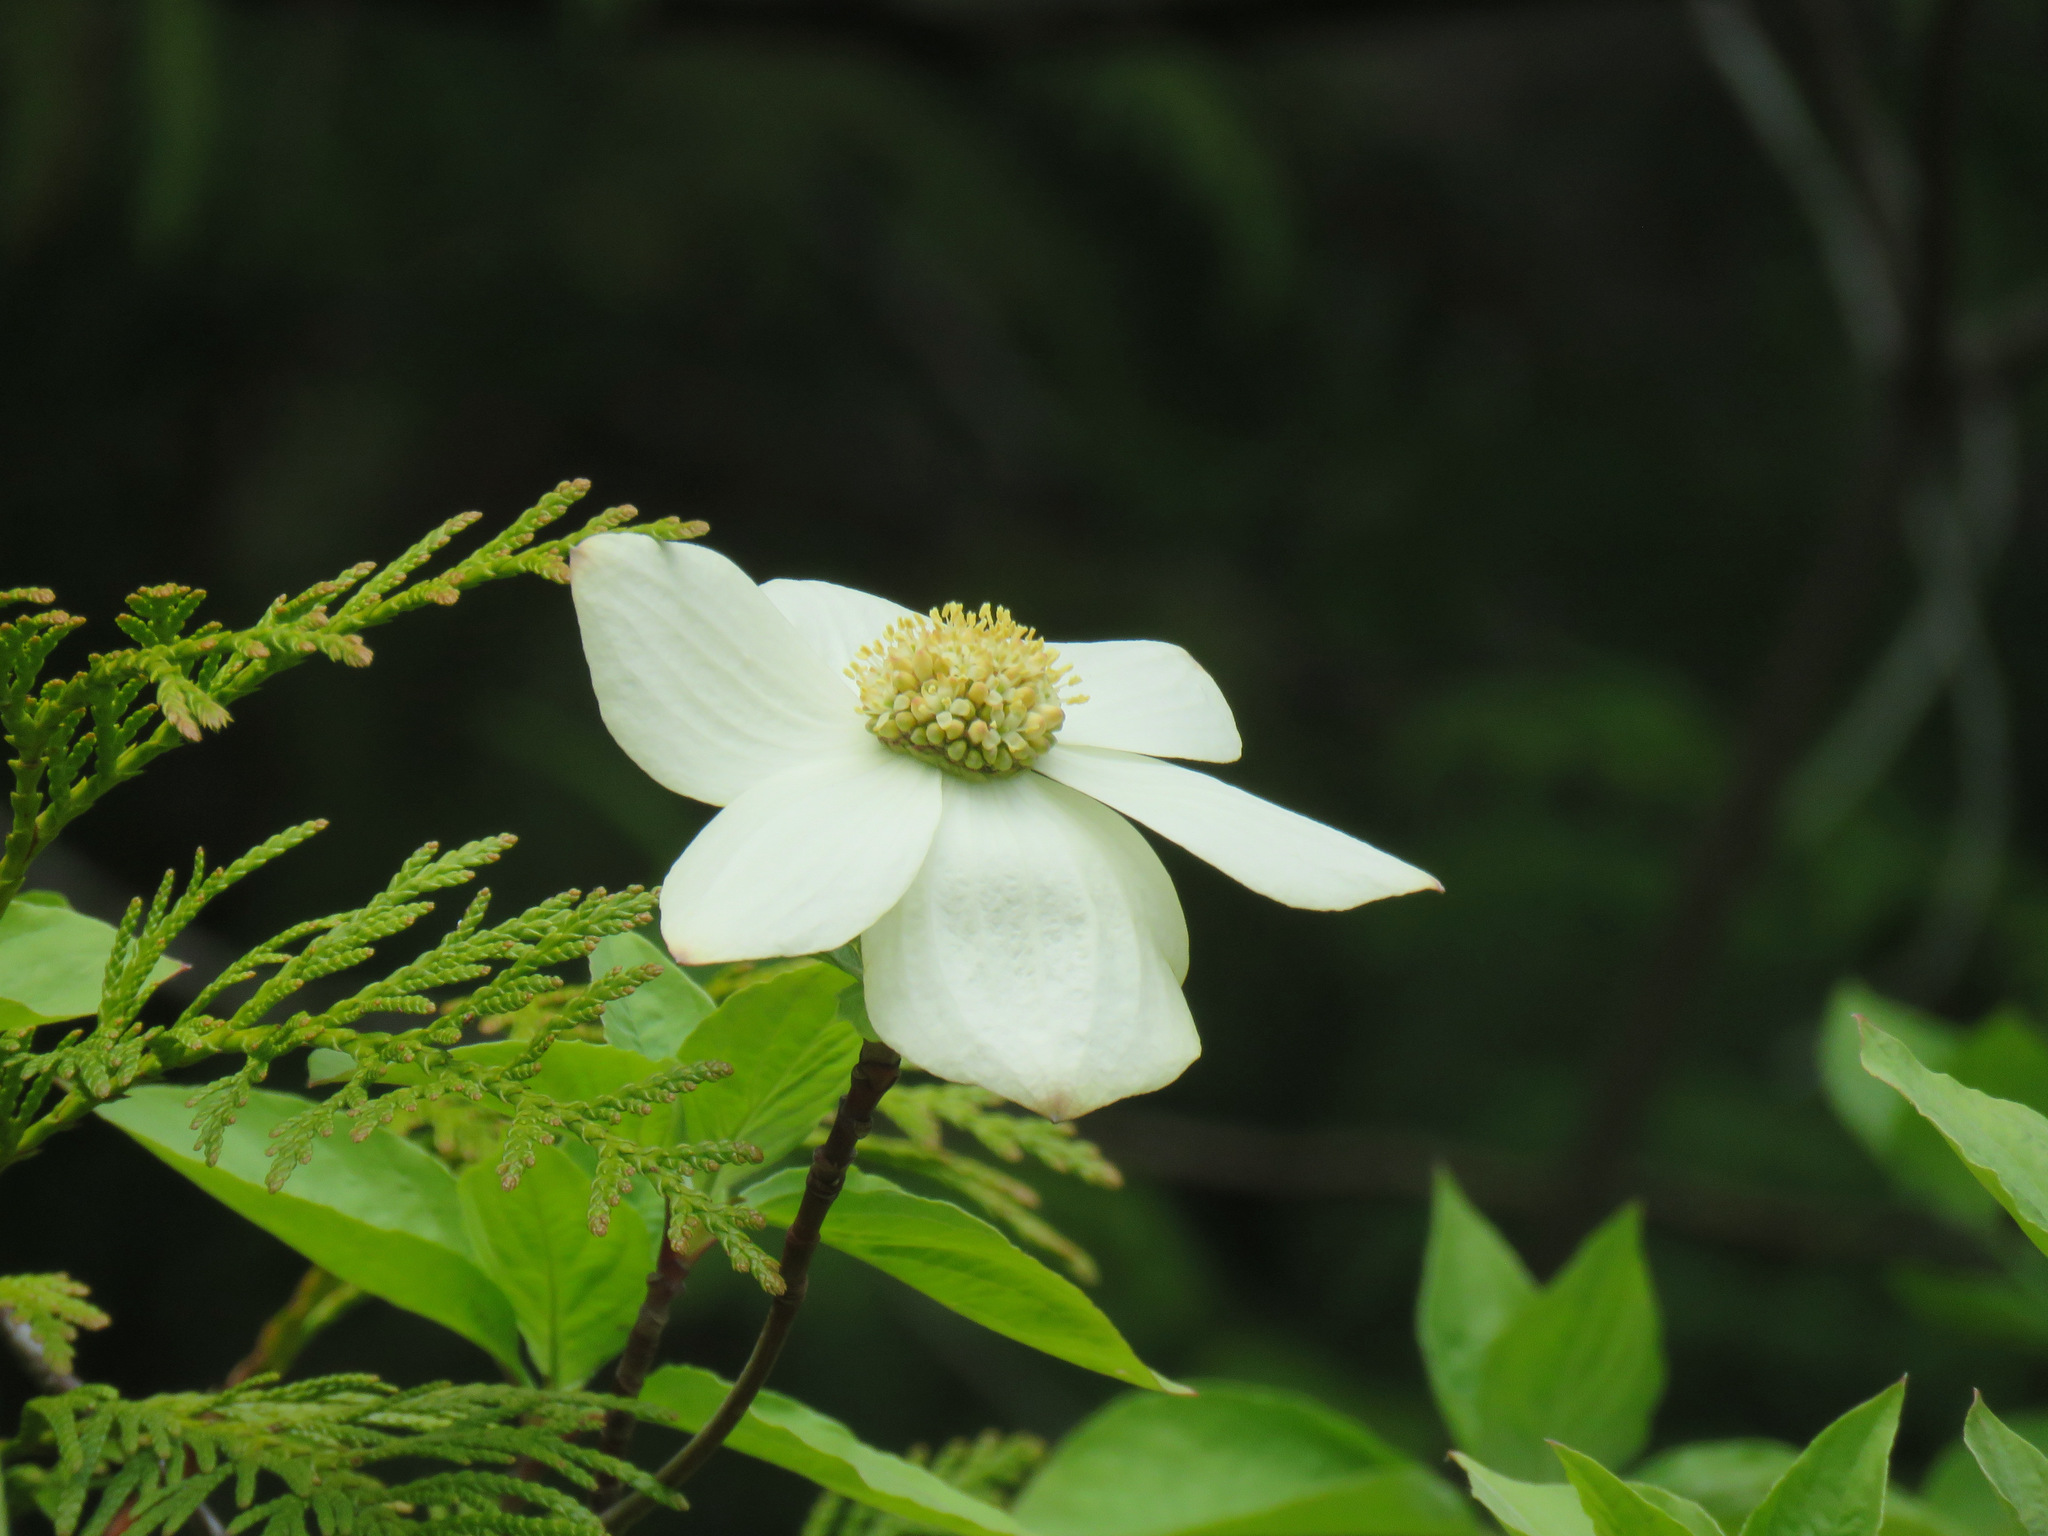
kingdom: Plantae
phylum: Tracheophyta
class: Magnoliopsida
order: Cornales
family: Cornaceae
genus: Cornus
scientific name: Cornus nuttallii
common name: Pacific dogwood
